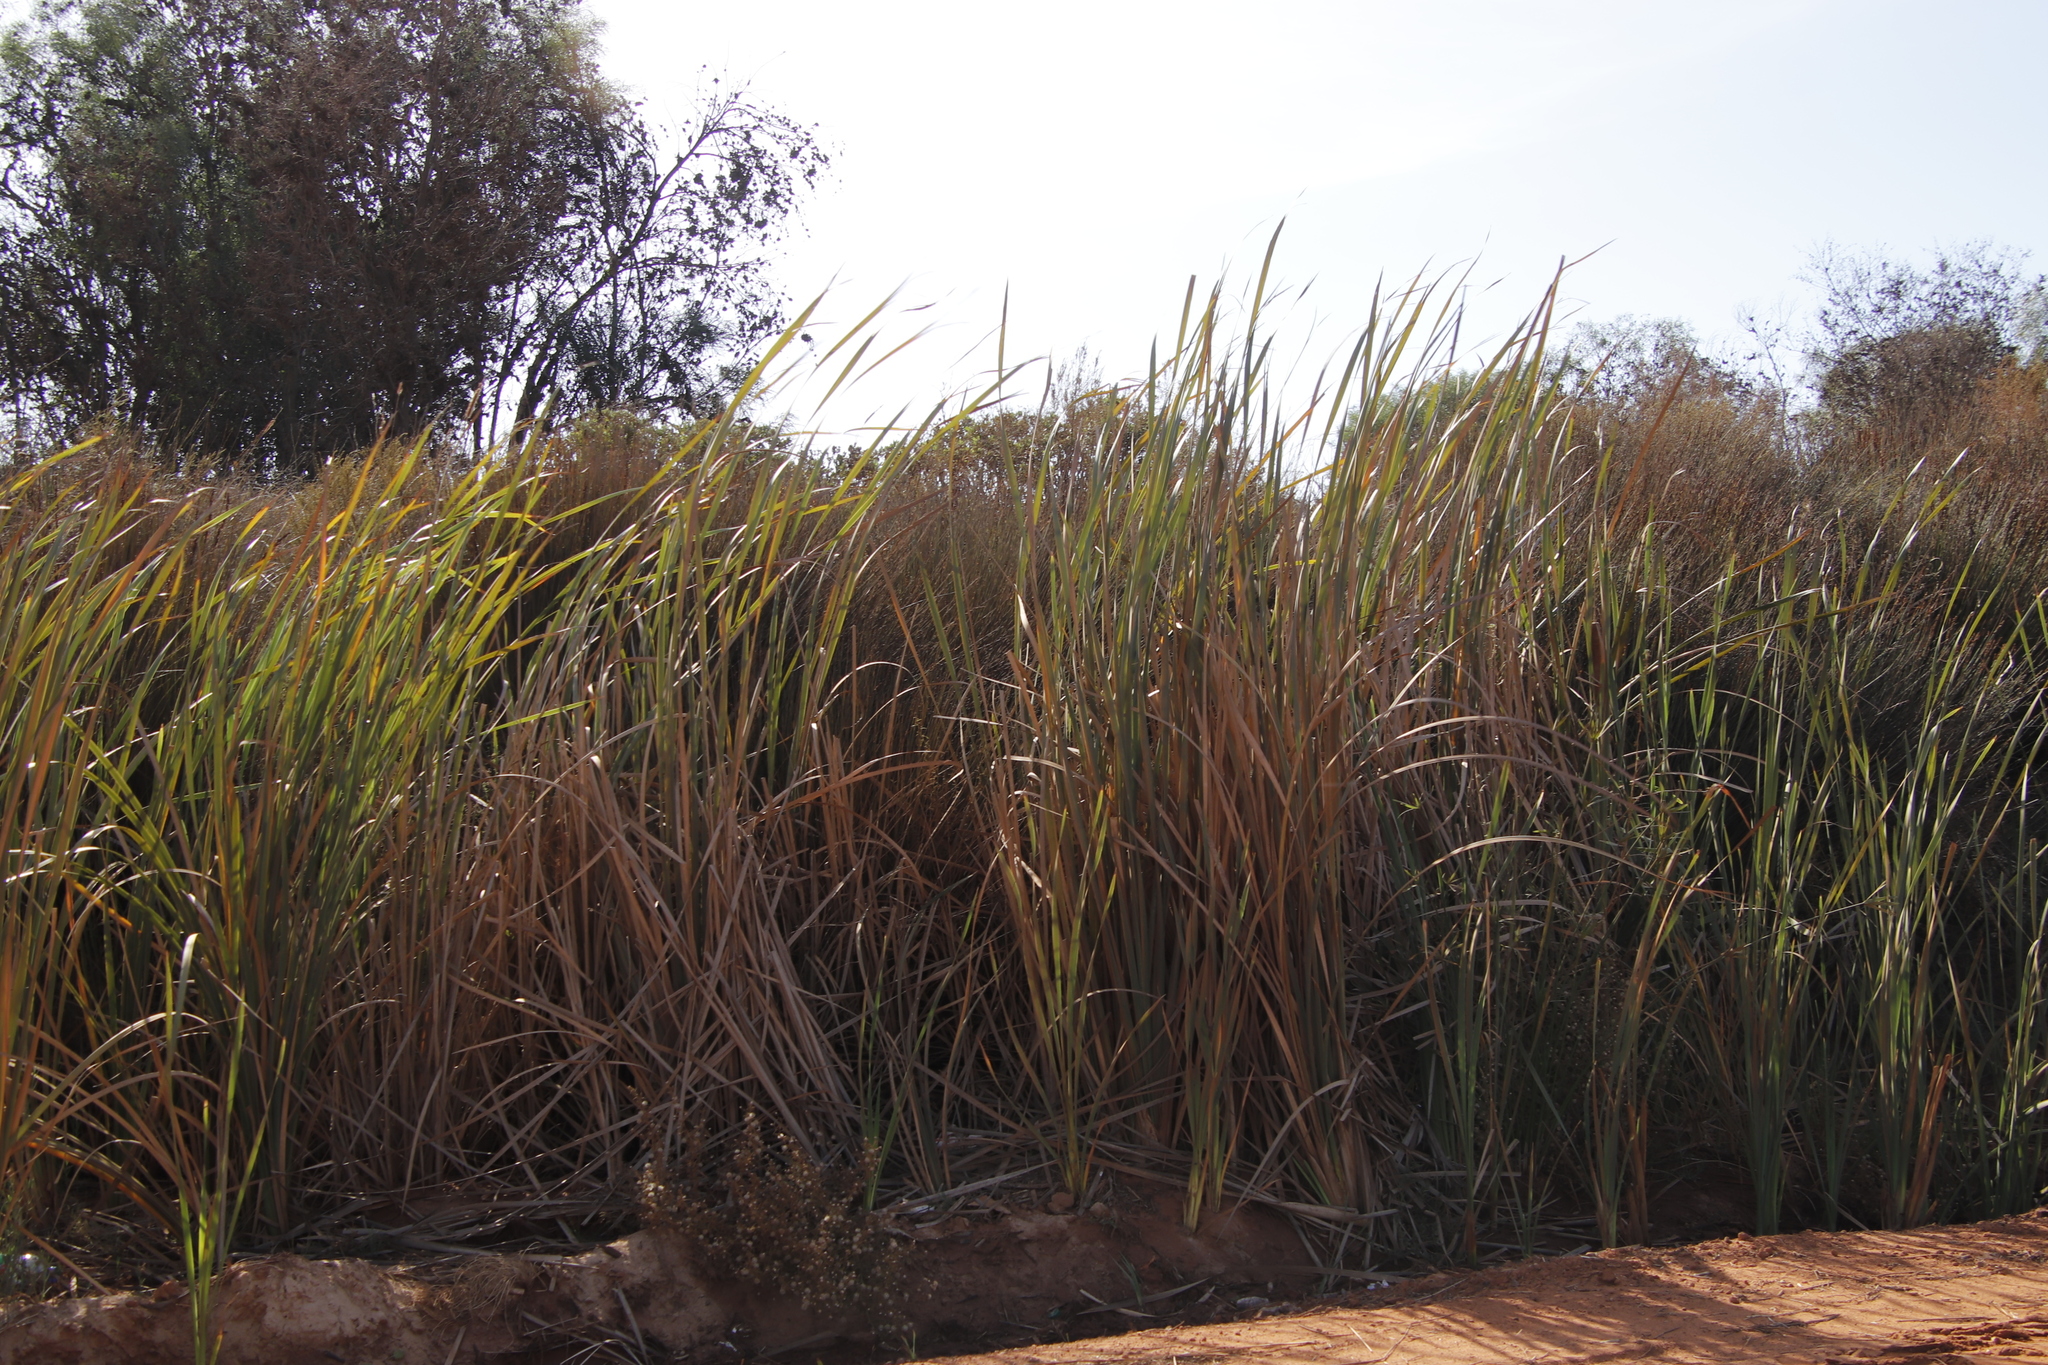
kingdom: Plantae
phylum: Tracheophyta
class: Liliopsida
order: Poales
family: Typhaceae
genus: Typha
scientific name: Typha capensis
